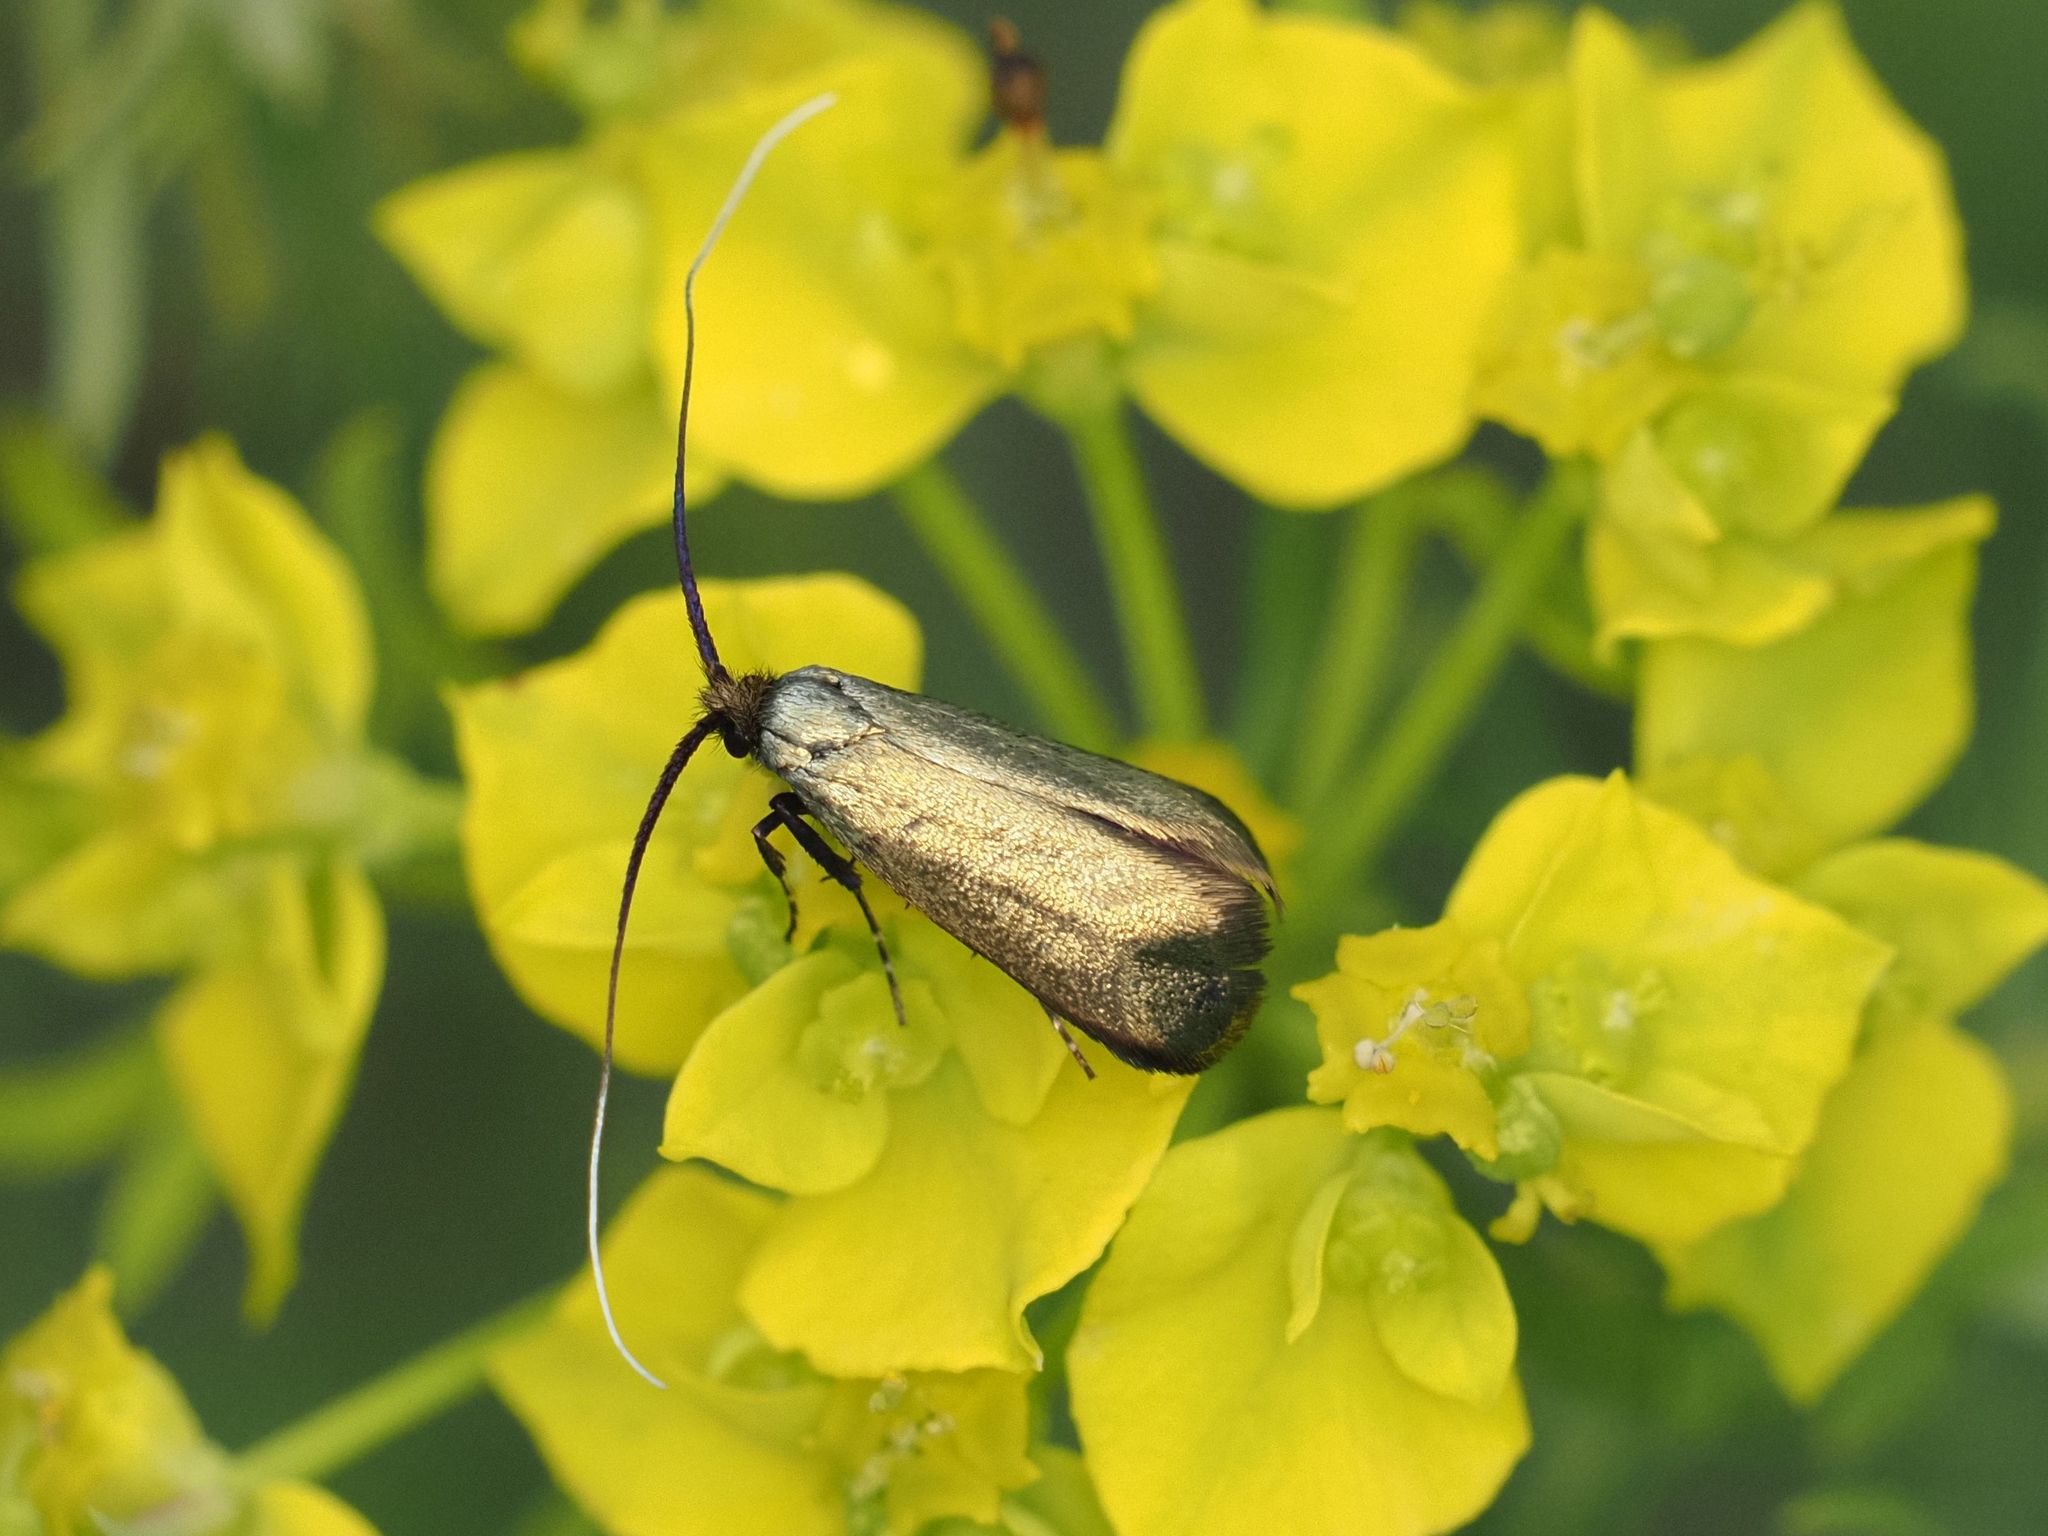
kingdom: Animalia
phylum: Arthropoda
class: Insecta
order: Lepidoptera
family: Adelidae
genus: Adela
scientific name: Adela viridella
